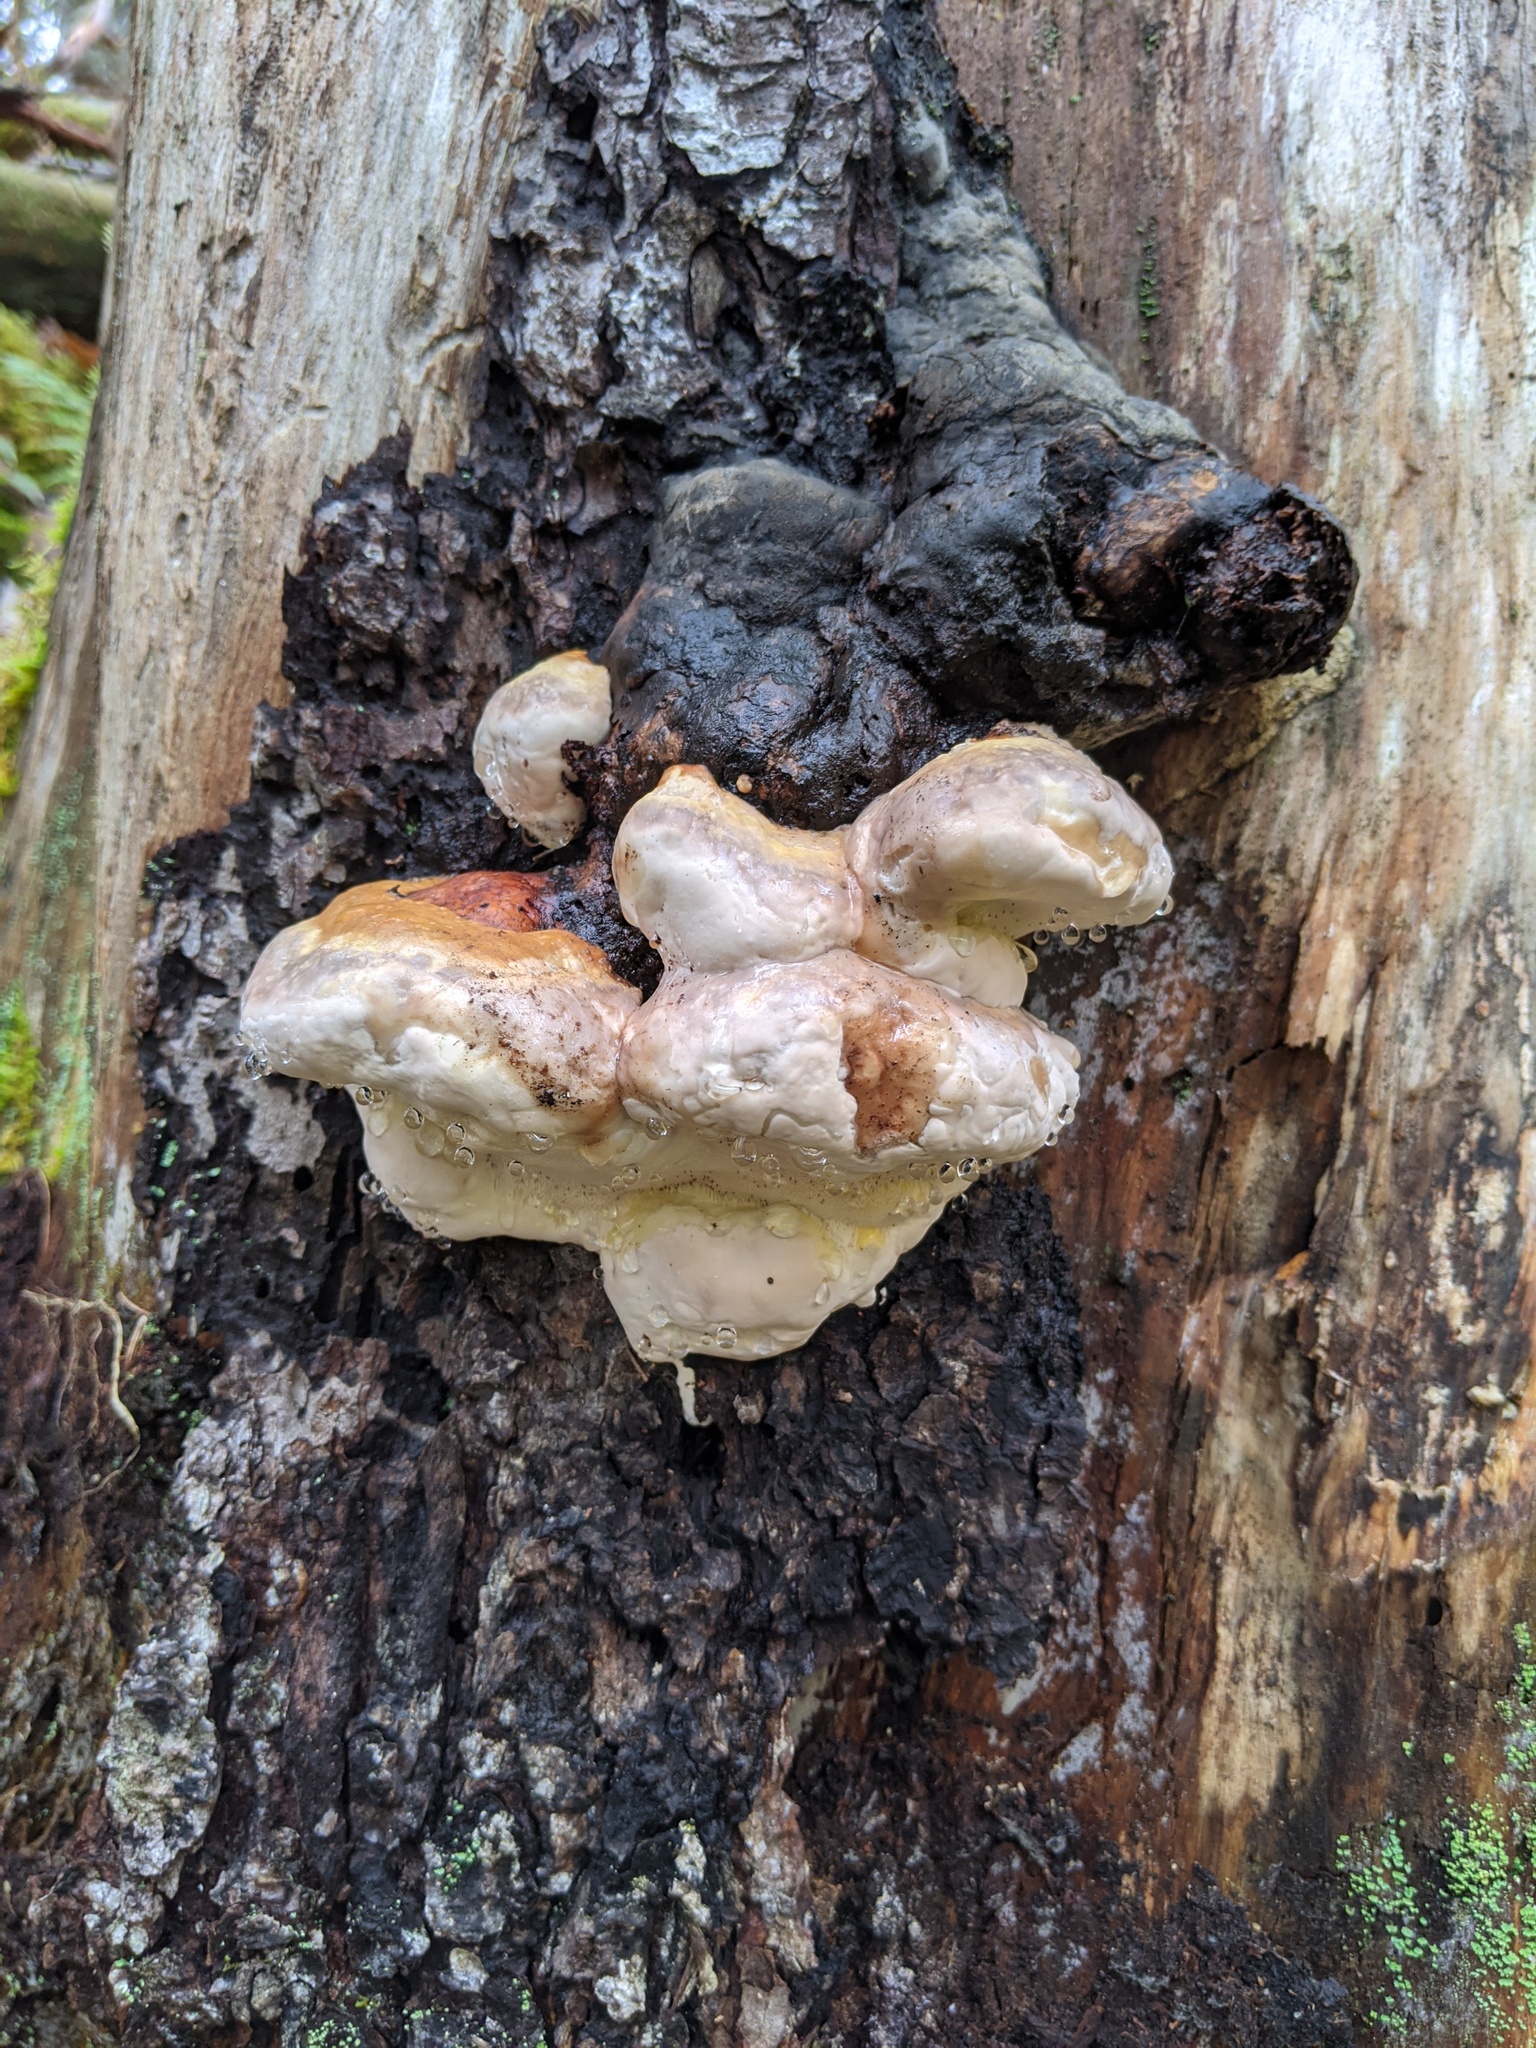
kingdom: Fungi
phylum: Basidiomycota
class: Agaricomycetes
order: Polyporales
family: Fomitopsidaceae
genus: Fomitopsis
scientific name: Fomitopsis mounceae
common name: Northern red belt
